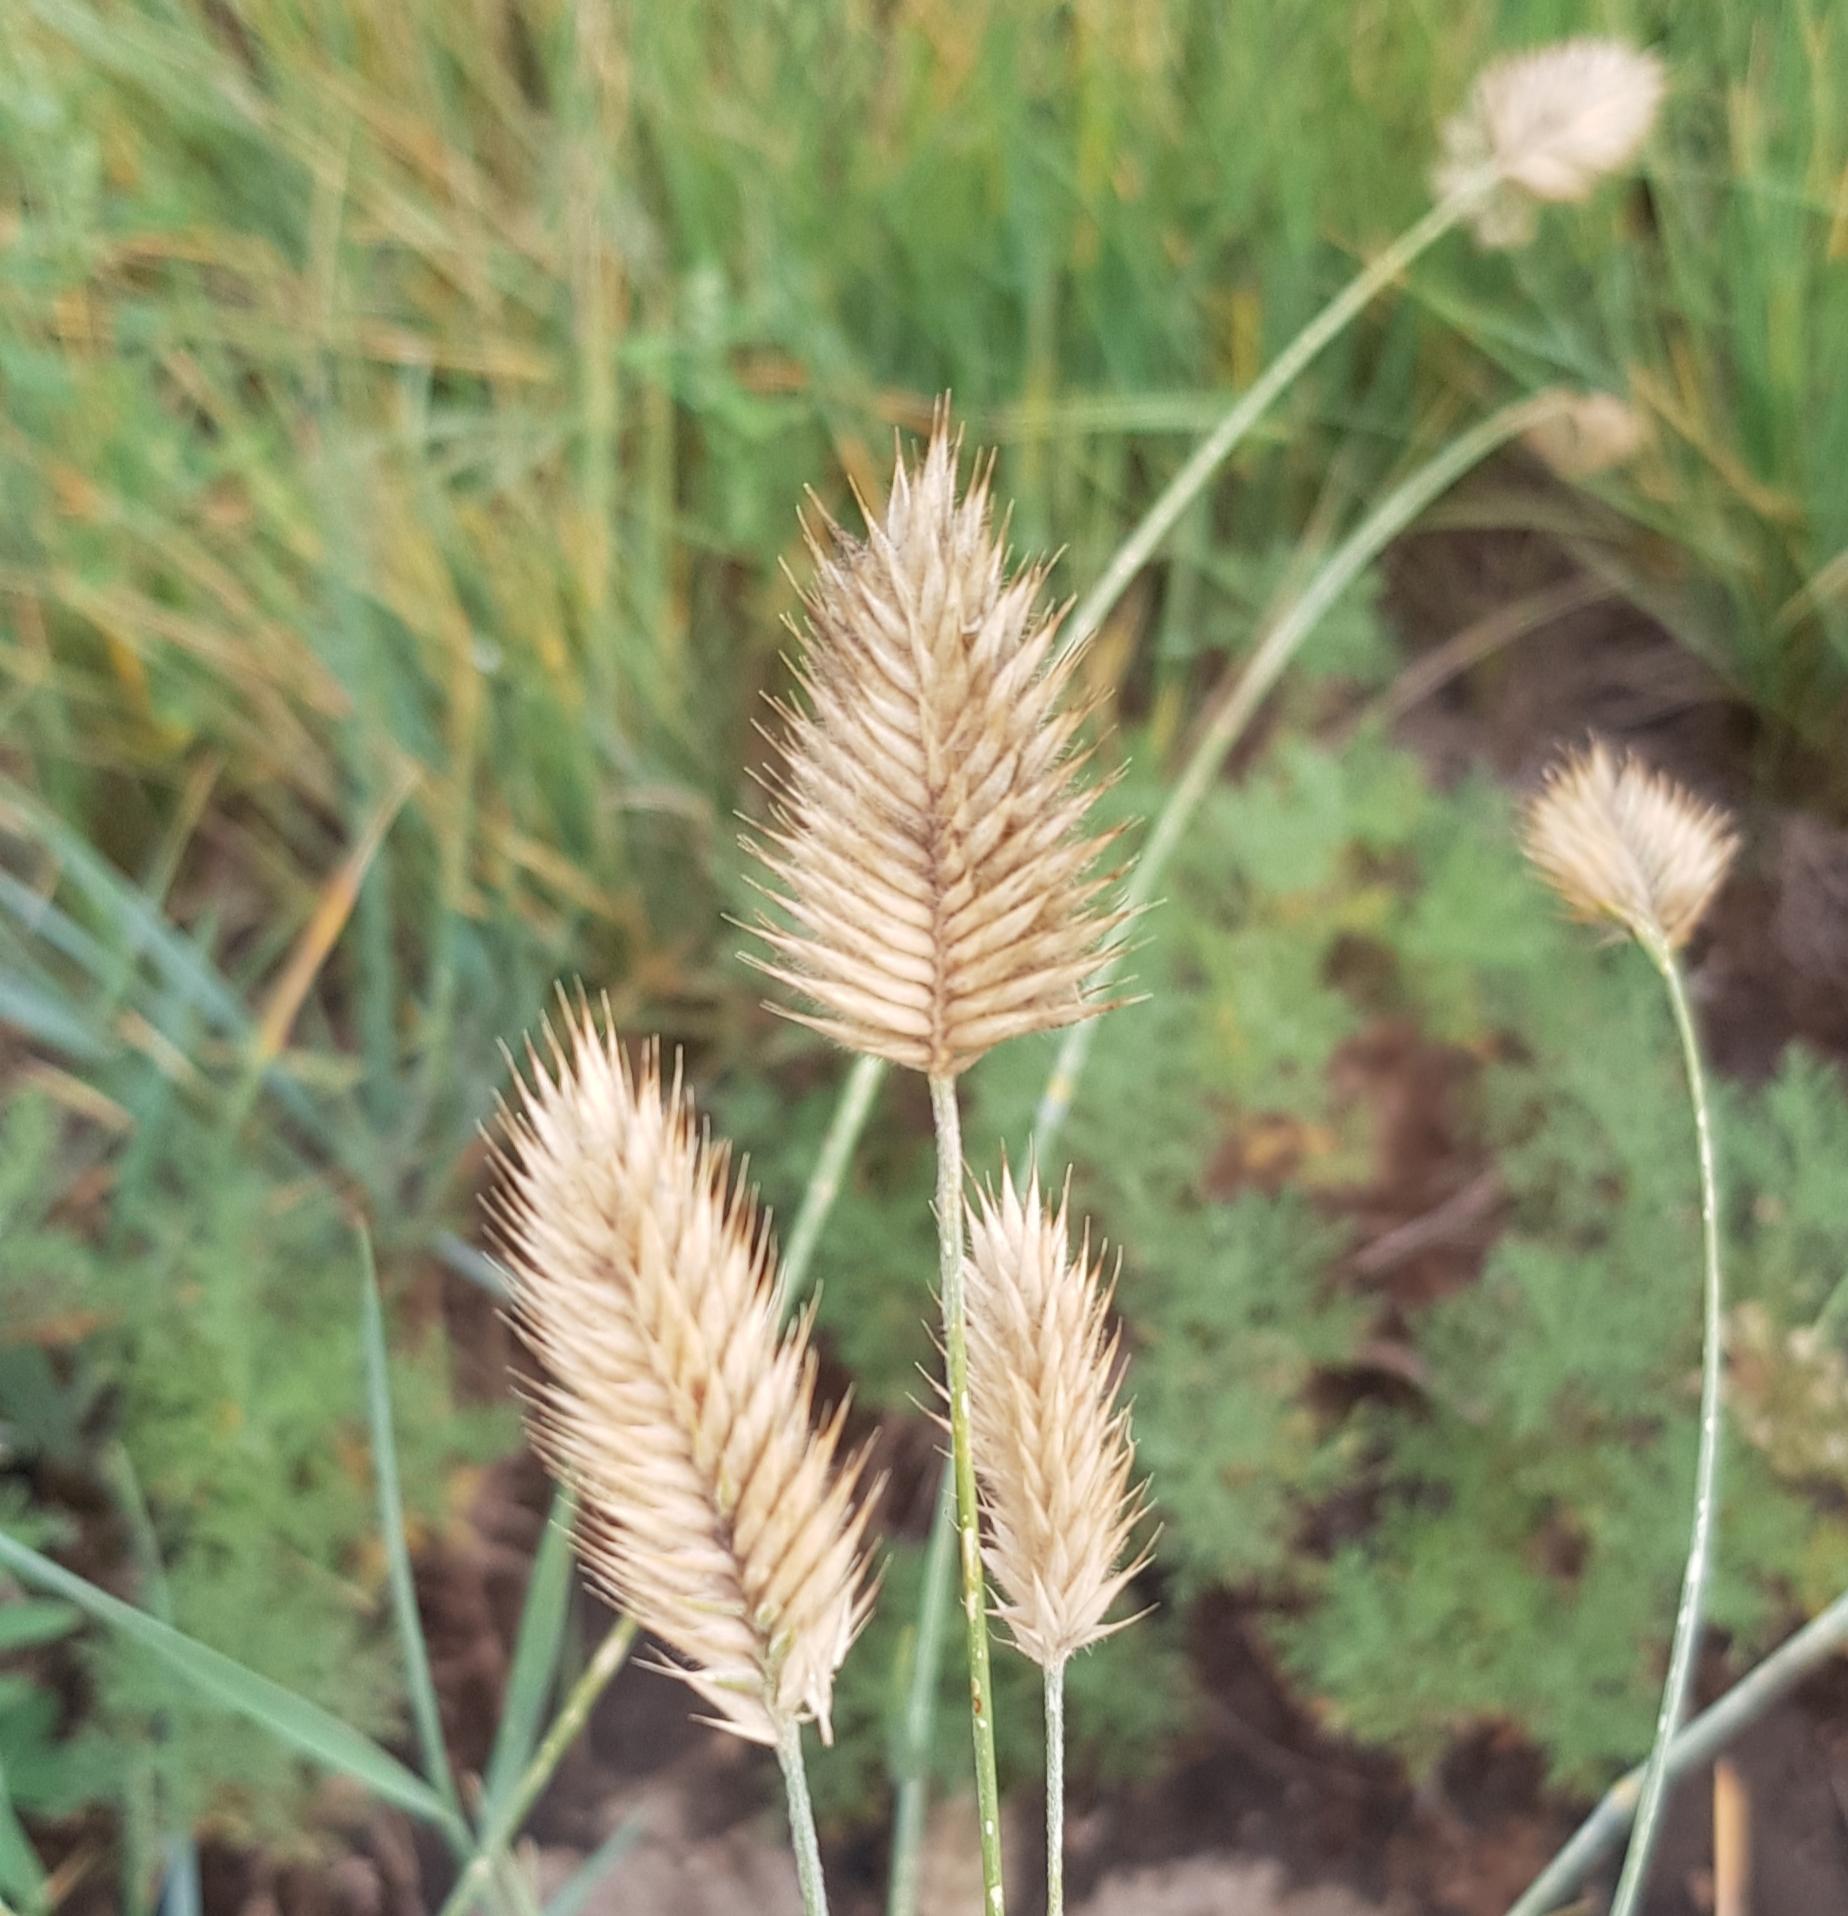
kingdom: Plantae
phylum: Tracheophyta
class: Liliopsida
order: Poales
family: Poaceae
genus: Agropyron
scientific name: Agropyron cristatum
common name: Crested wheatgrass
